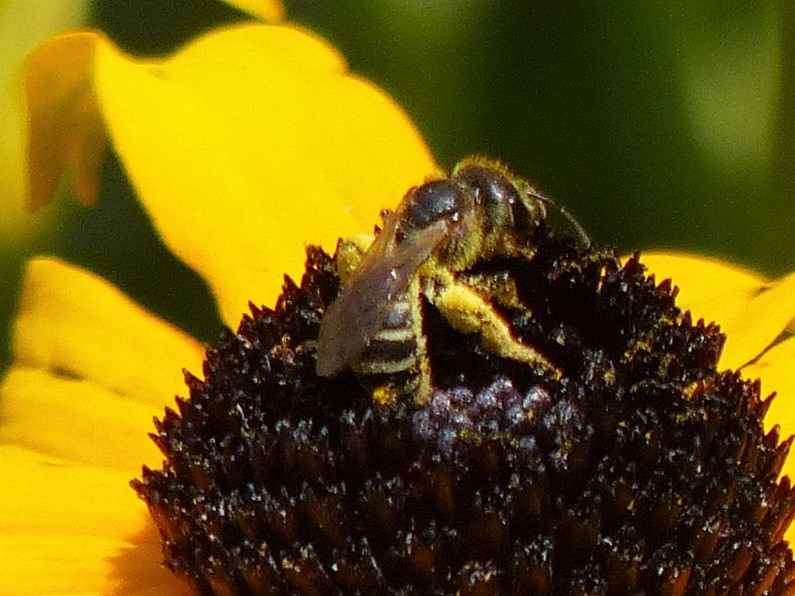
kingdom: Animalia
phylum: Arthropoda
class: Insecta
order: Hymenoptera
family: Halictidae
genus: Halictus
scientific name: Halictus ligatus
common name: Ligated furrow bee
